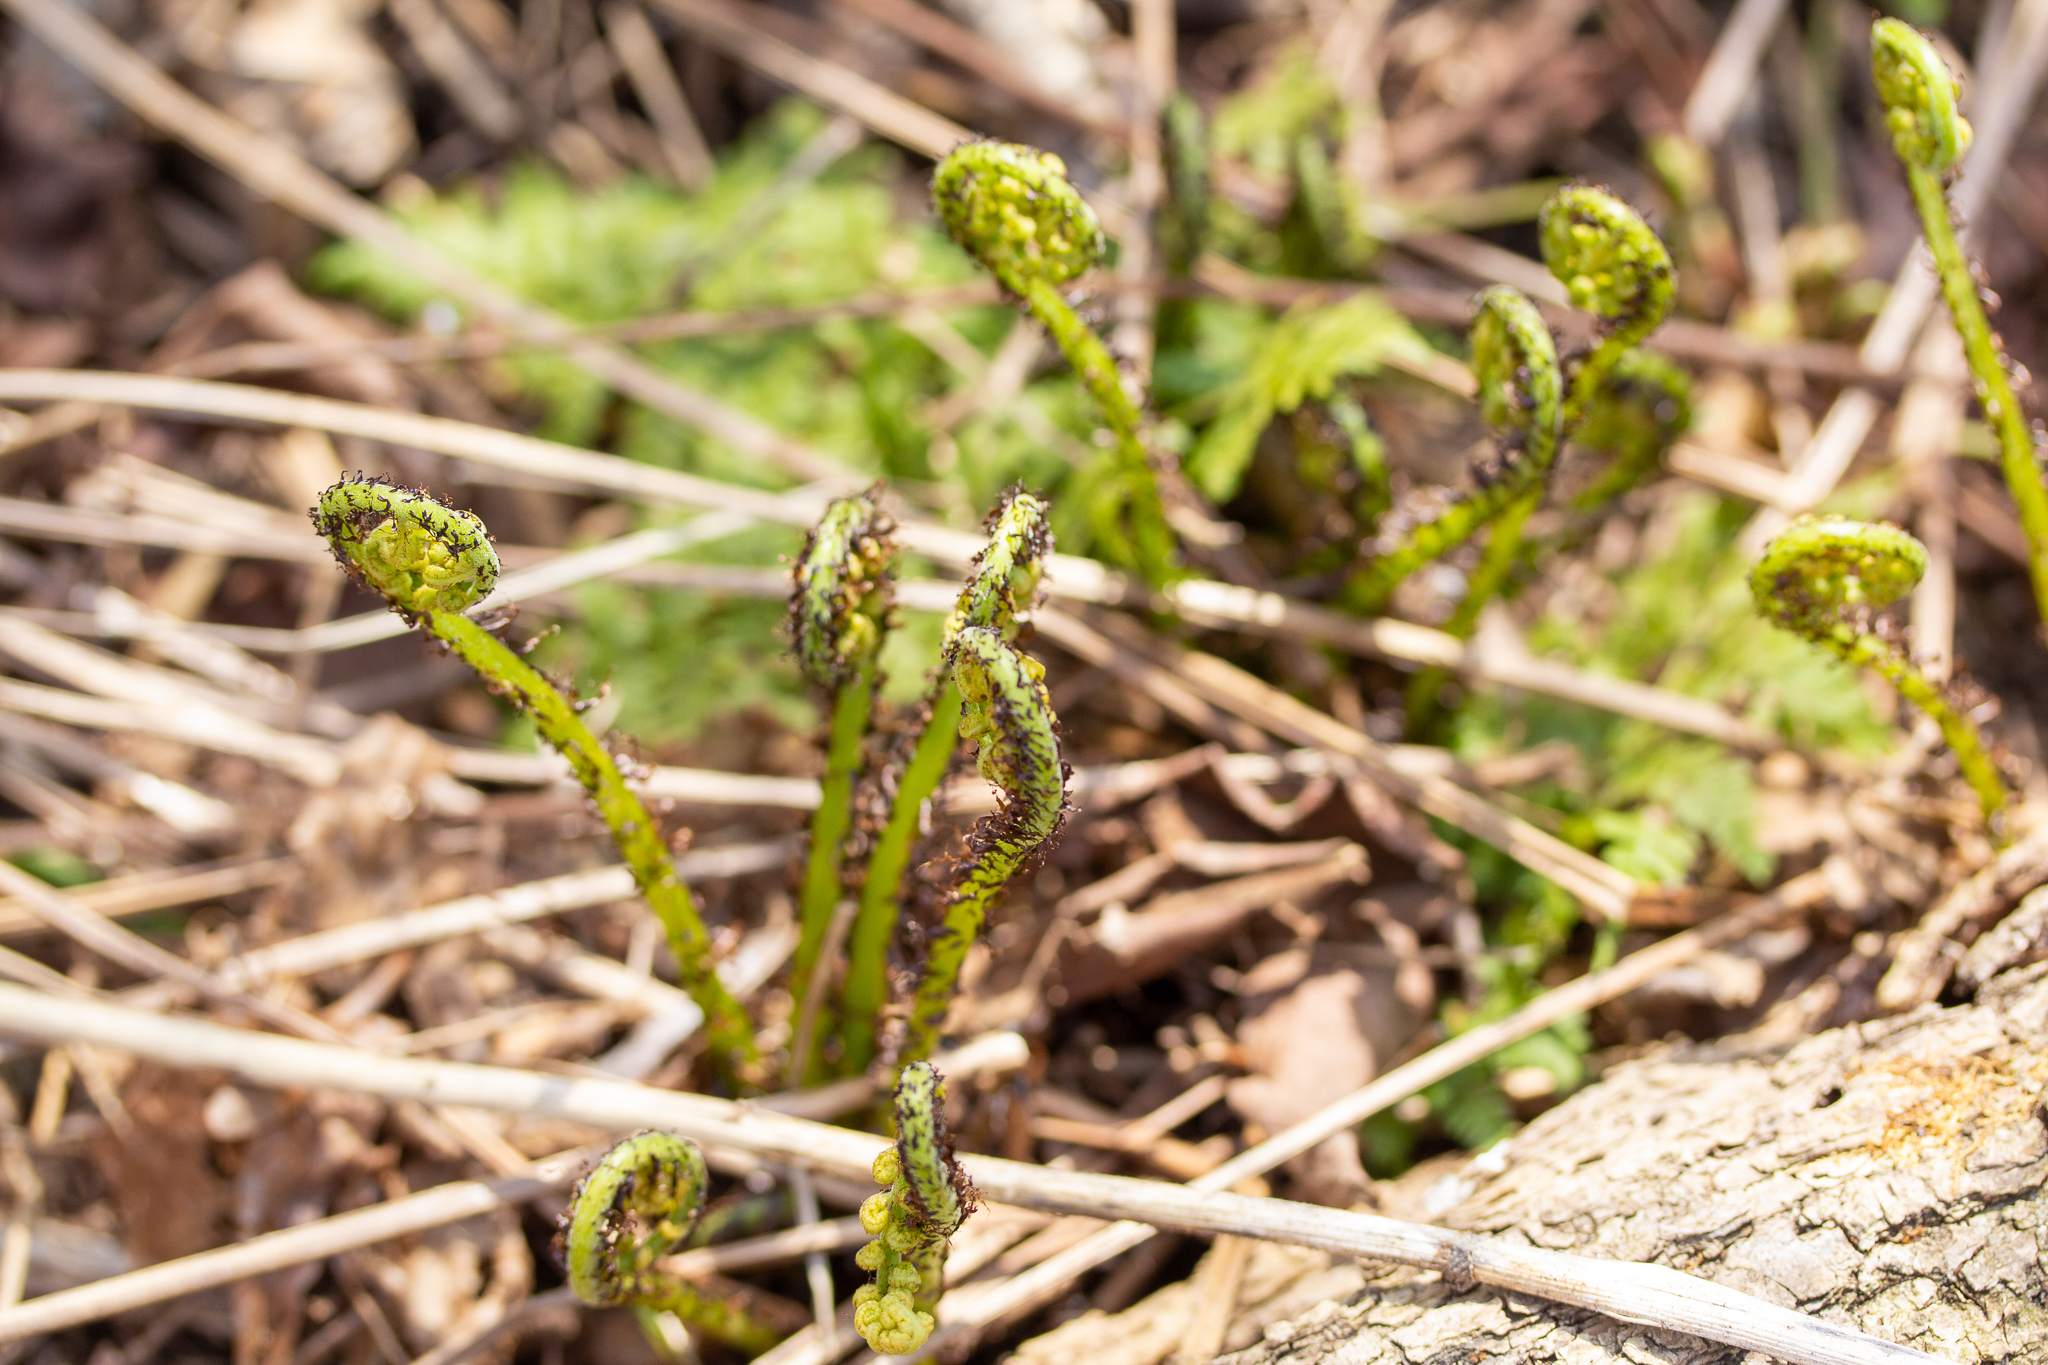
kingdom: Plantae
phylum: Tracheophyta
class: Polypodiopsida
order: Polypodiales
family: Athyriaceae
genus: Athyrium
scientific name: Athyrium angustum
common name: Northern lady fern
